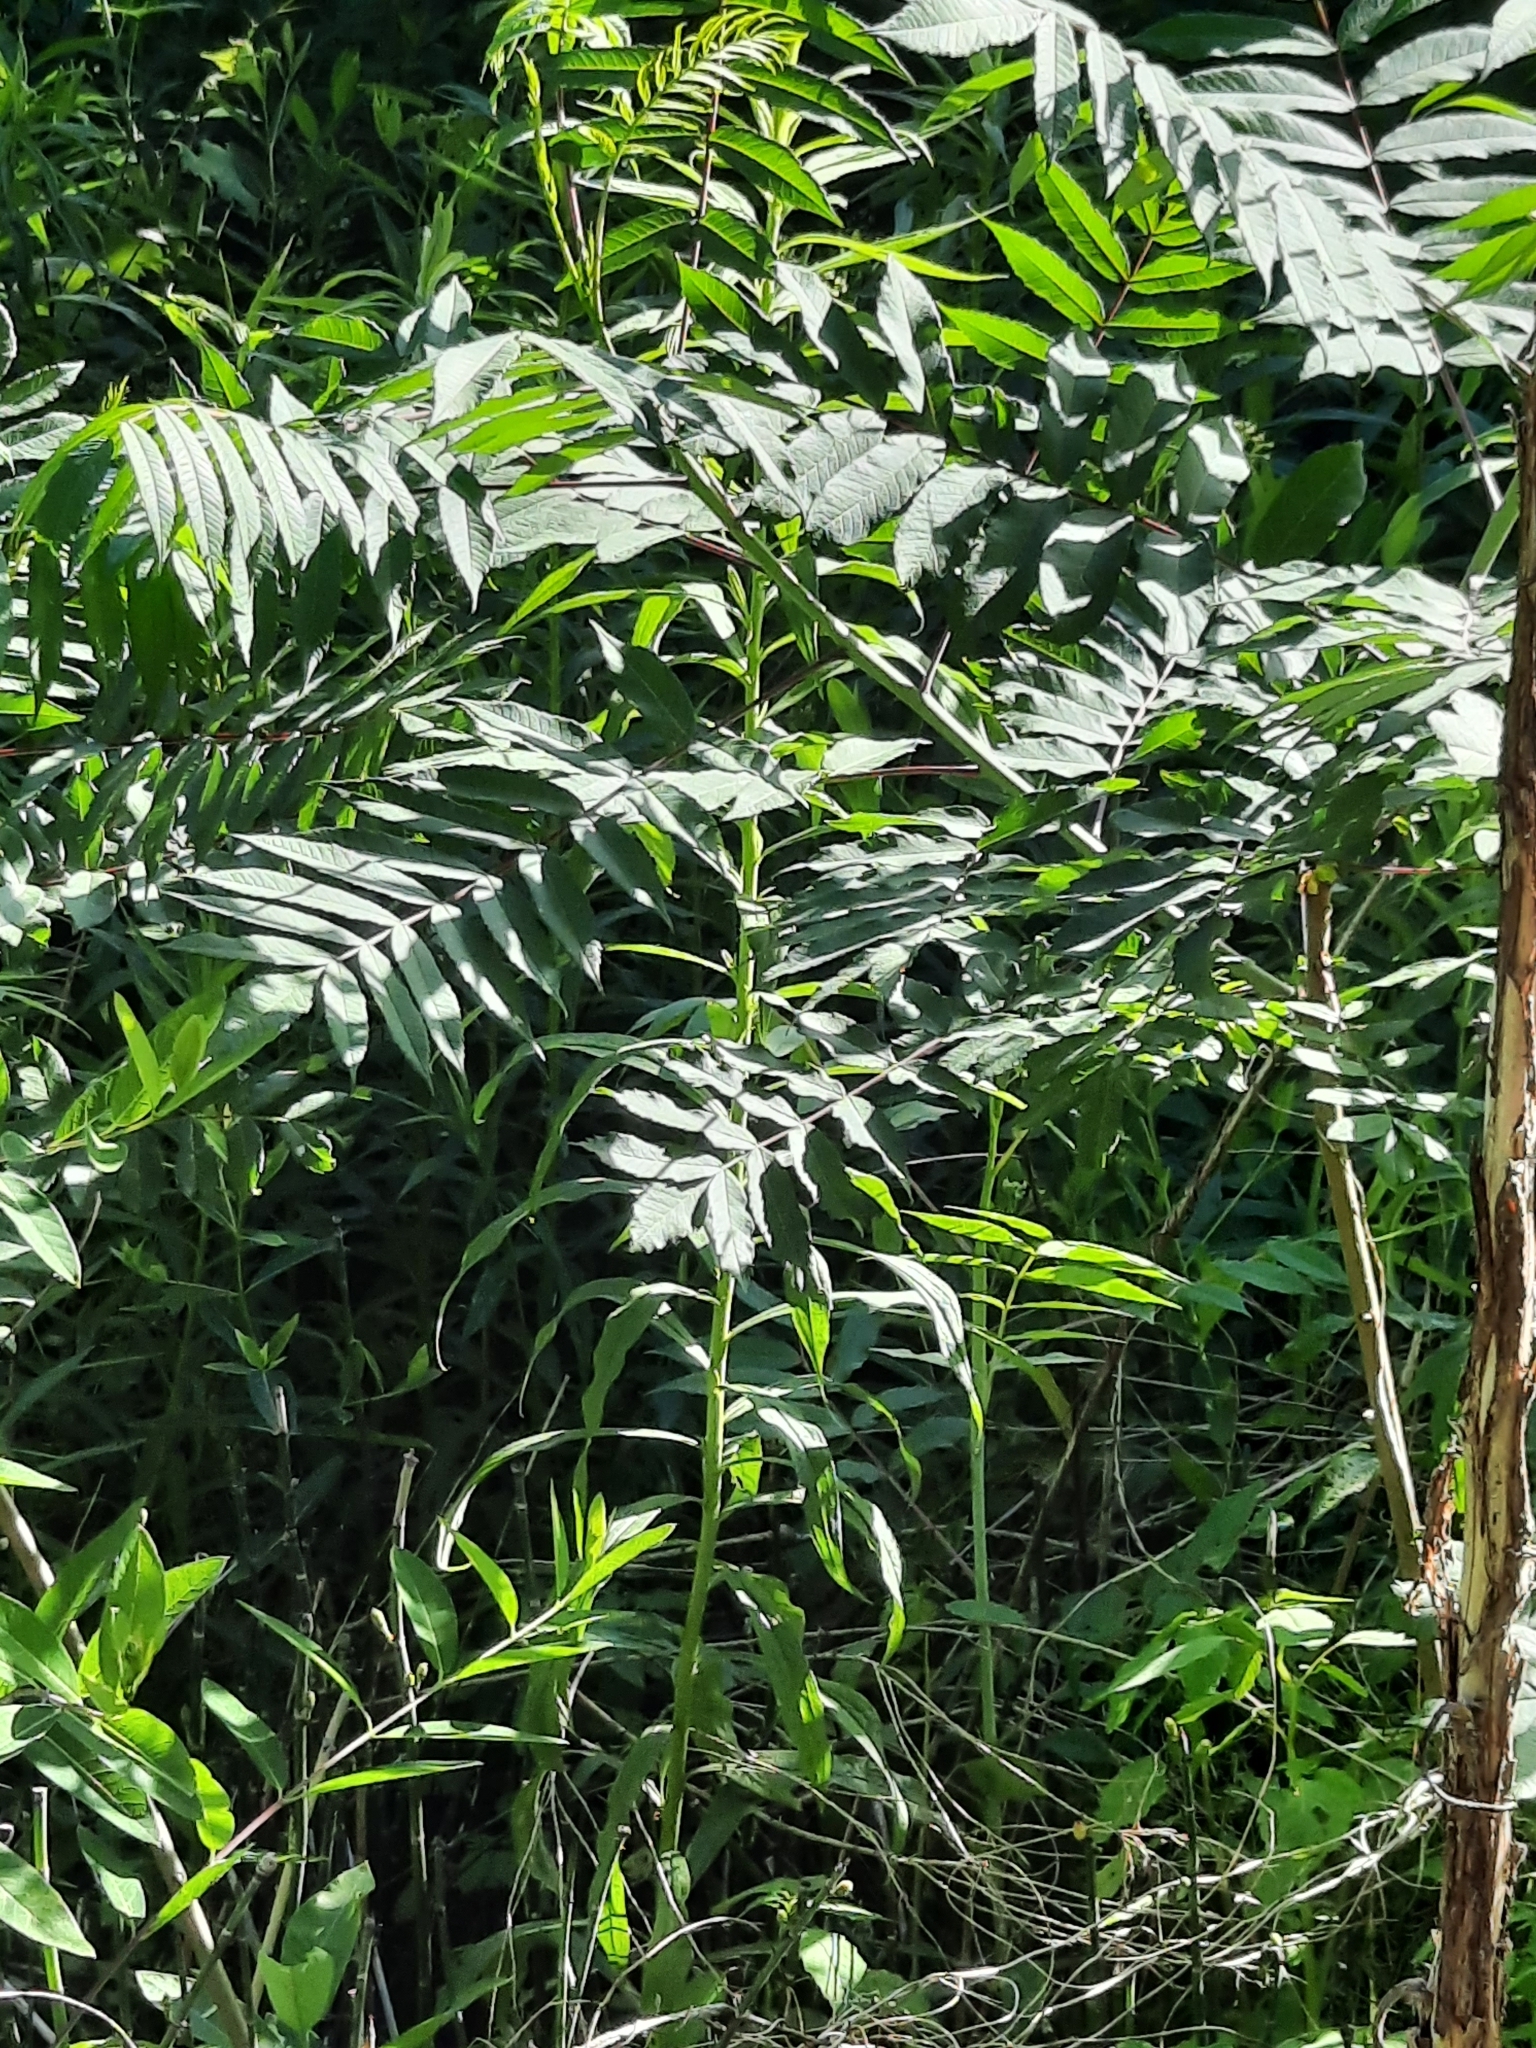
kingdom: Plantae
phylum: Tracheophyta
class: Magnoliopsida
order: Sapindales
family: Anacardiaceae
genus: Rhus
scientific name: Rhus glabra
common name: Scarlet sumac
